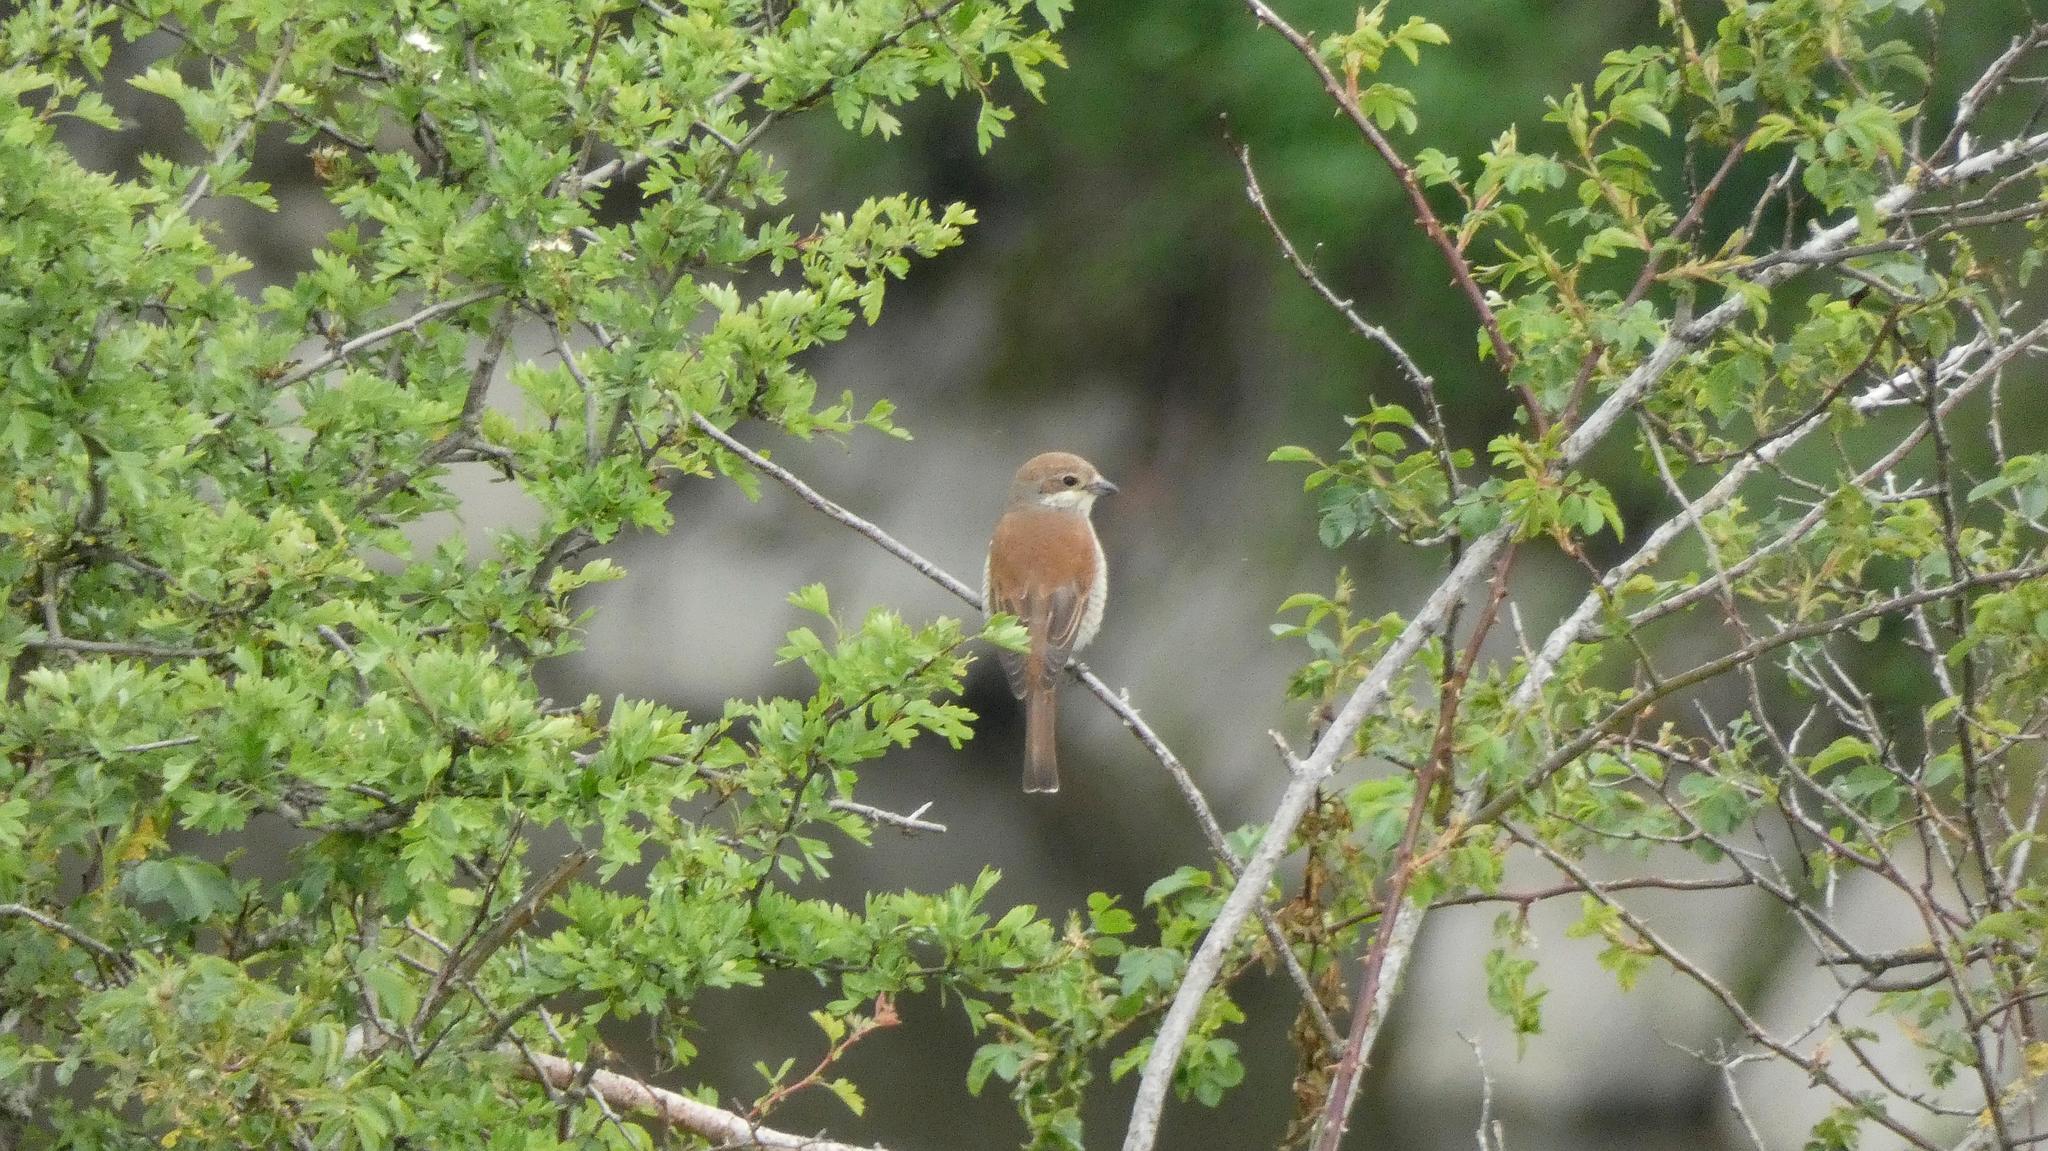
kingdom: Animalia
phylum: Chordata
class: Aves
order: Passeriformes
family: Laniidae
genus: Lanius
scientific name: Lanius collurio
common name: Red-backed shrike
